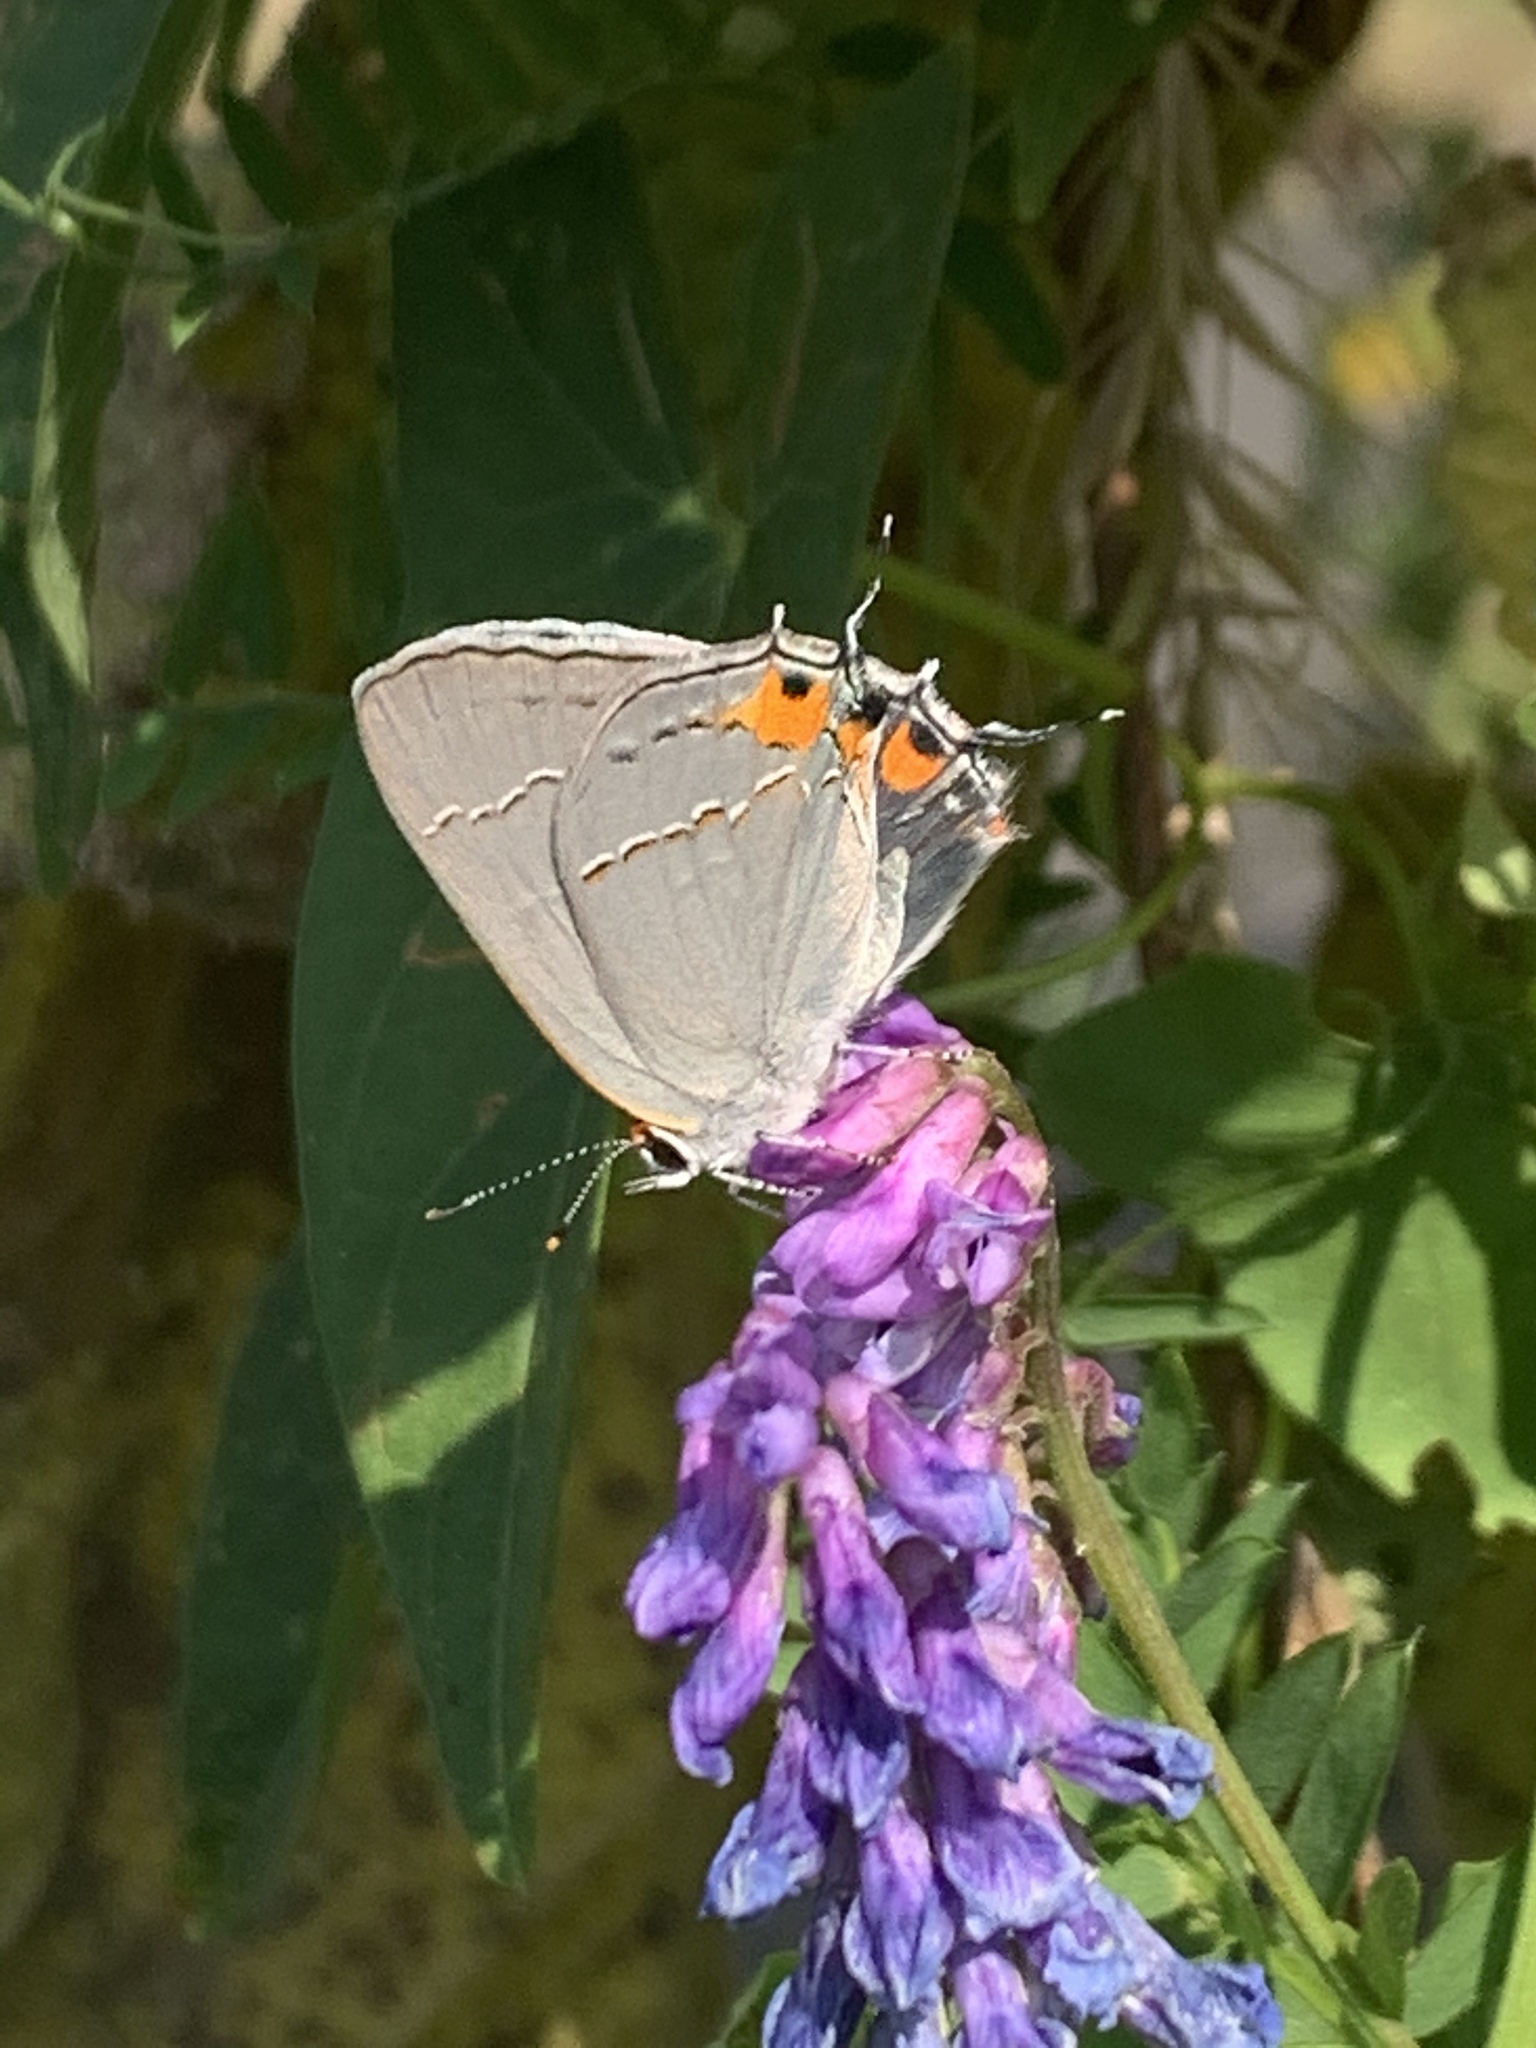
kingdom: Animalia
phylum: Arthropoda
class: Insecta
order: Lepidoptera
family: Lycaenidae
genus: Strymon
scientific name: Strymon melinus
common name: Gray hairstreak
